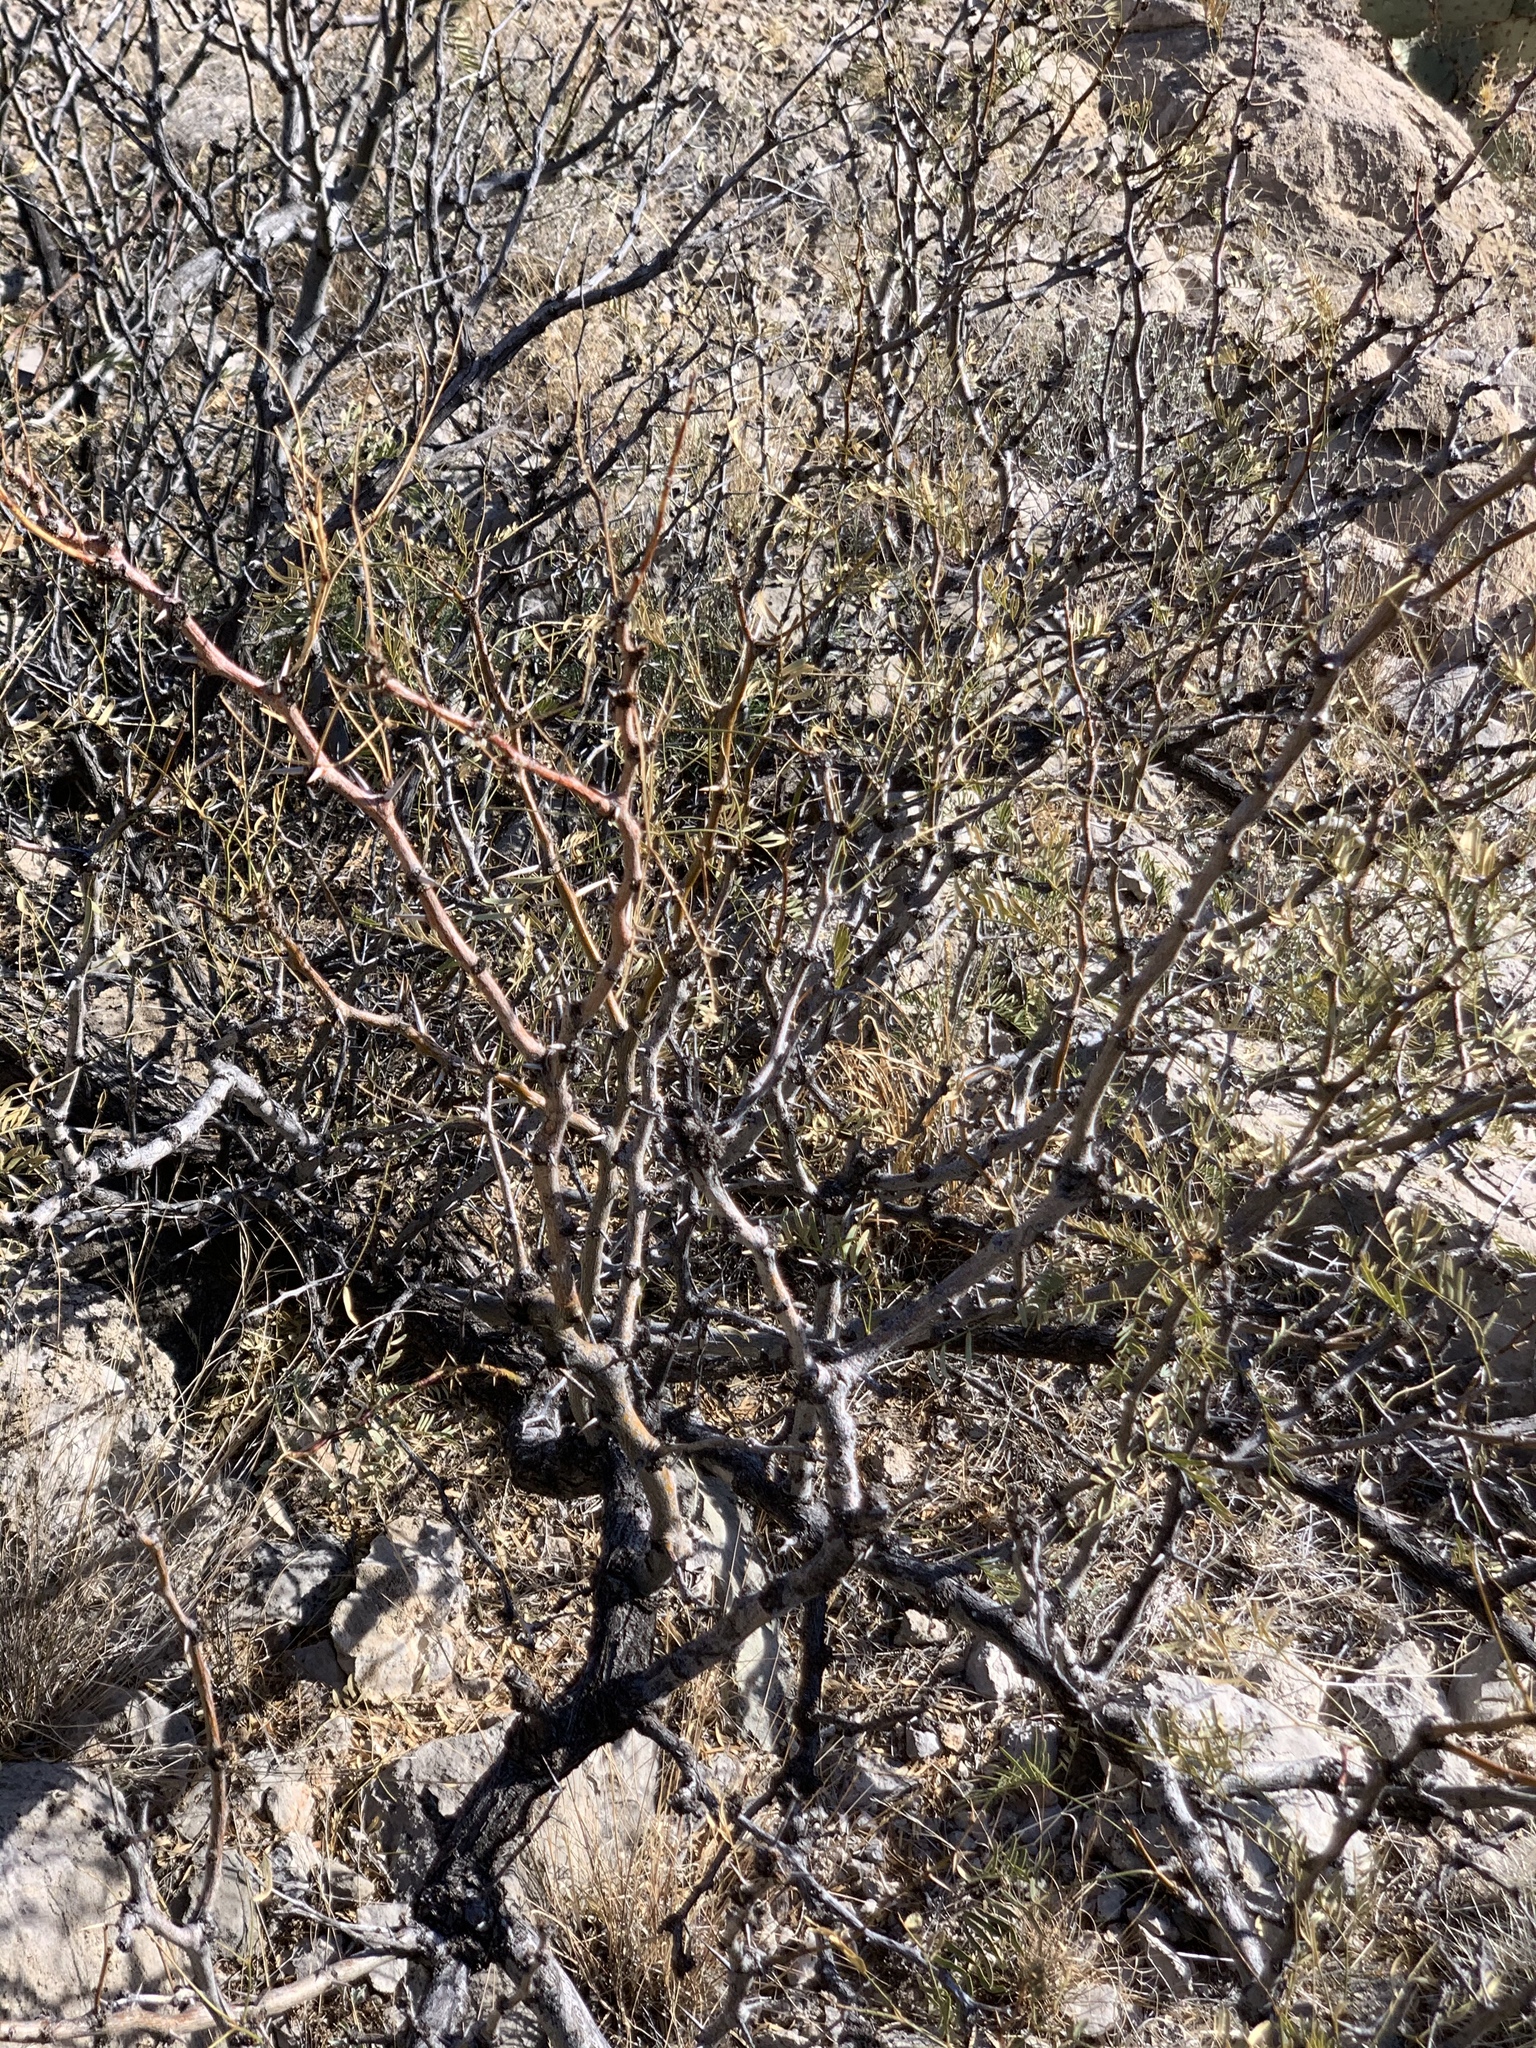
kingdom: Plantae
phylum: Tracheophyta
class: Magnoliopsida
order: Fabales
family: Fabaceae
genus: Prosopis
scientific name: Prosopis glandulosa
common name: Honey mesquite
